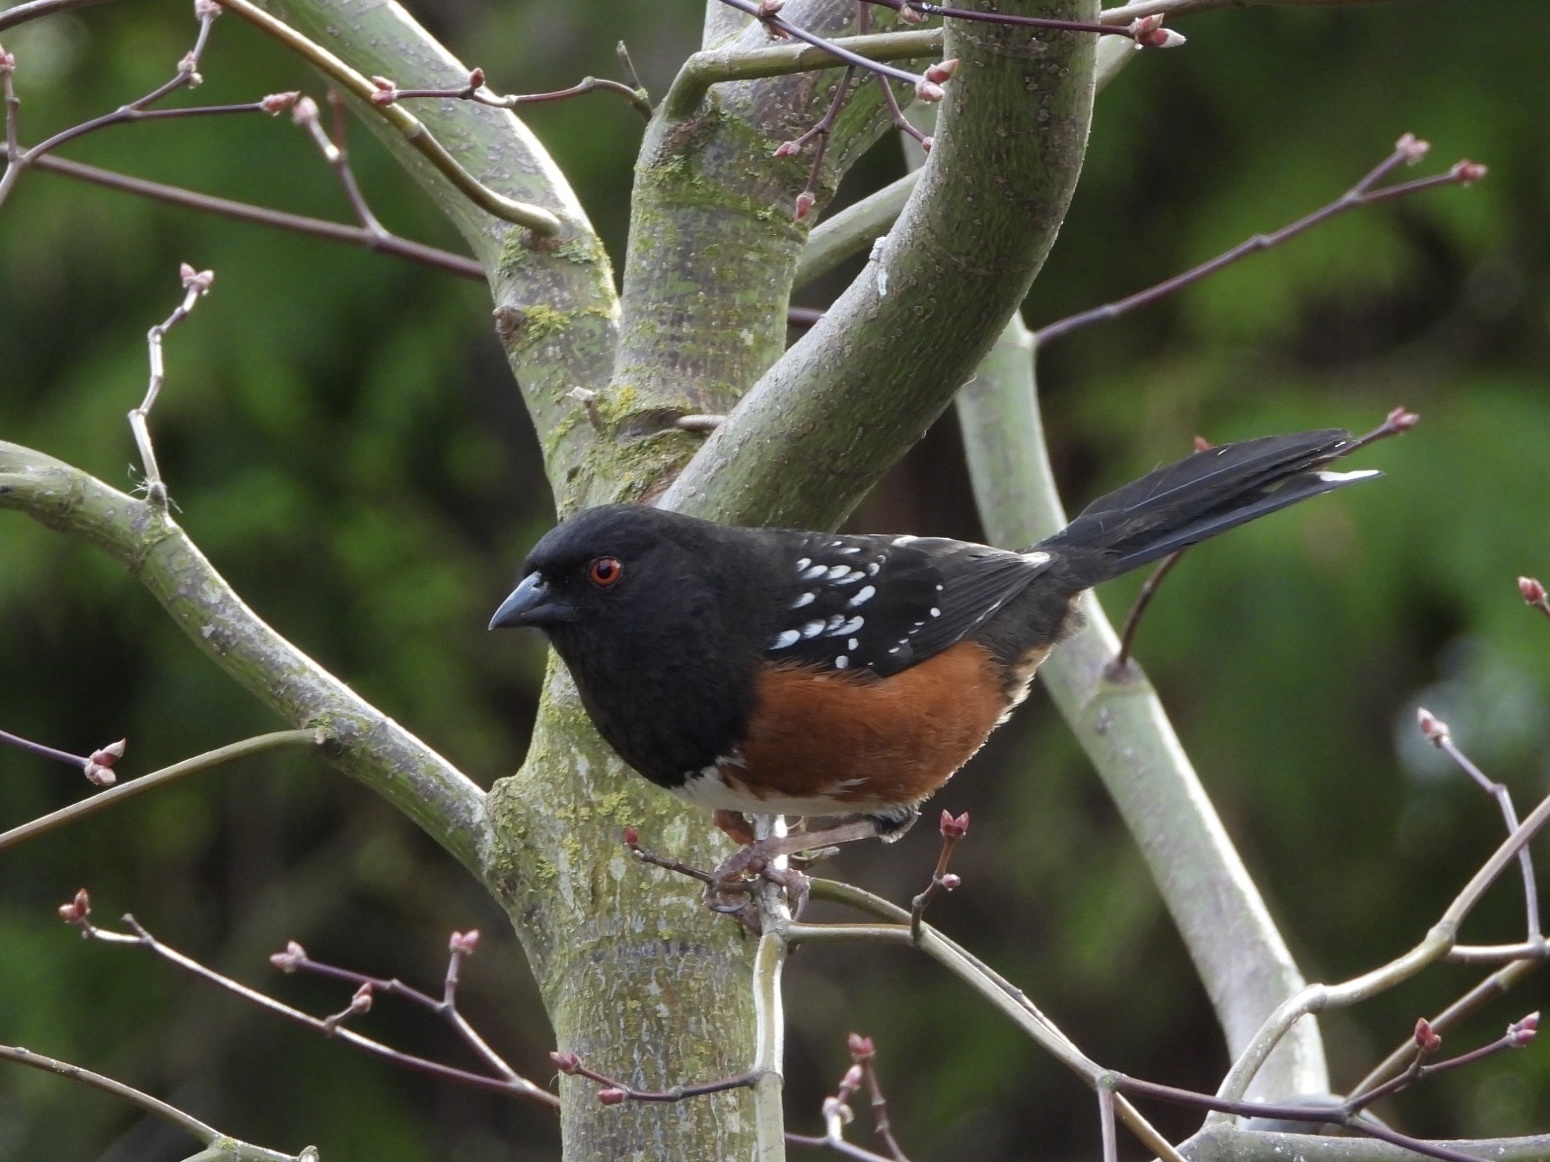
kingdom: Animalia
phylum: Chordata
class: Aves
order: Passeriformes
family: Passerellidae
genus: Pipilo
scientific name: Pipilo maculatus
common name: Spotted towhee
